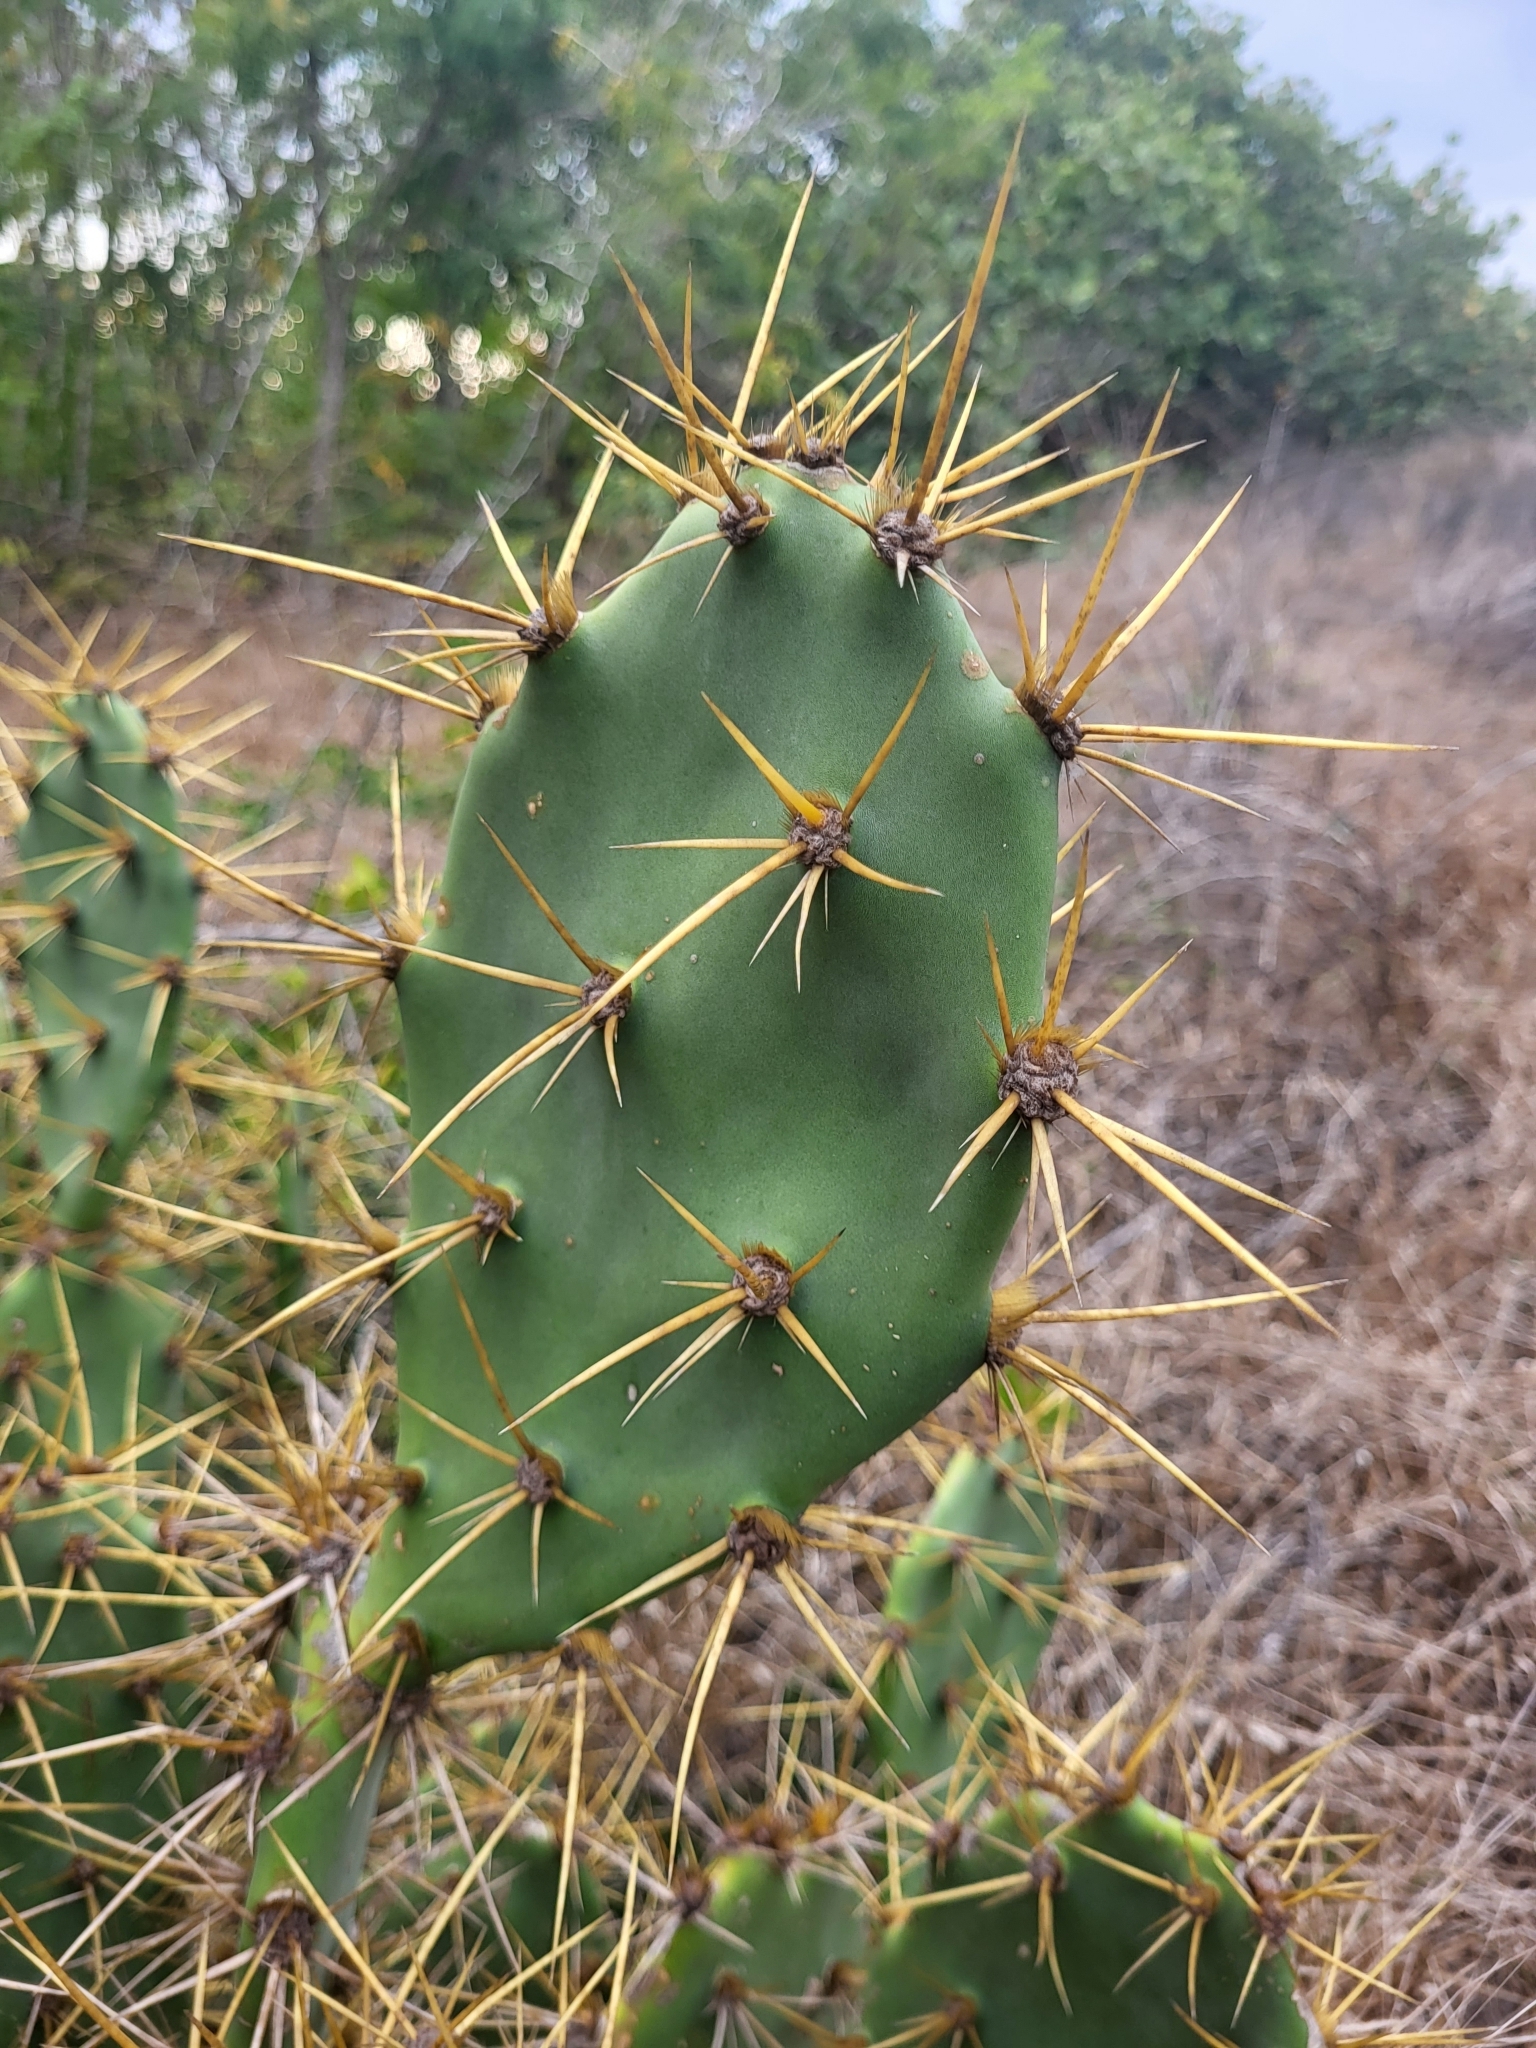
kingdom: Plantae
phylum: Tracheophyta
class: Magnoliopsida
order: Caryophyllales
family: Cactaceae
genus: Opuntia
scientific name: Opuntia stricta
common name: Erect pricklypear
